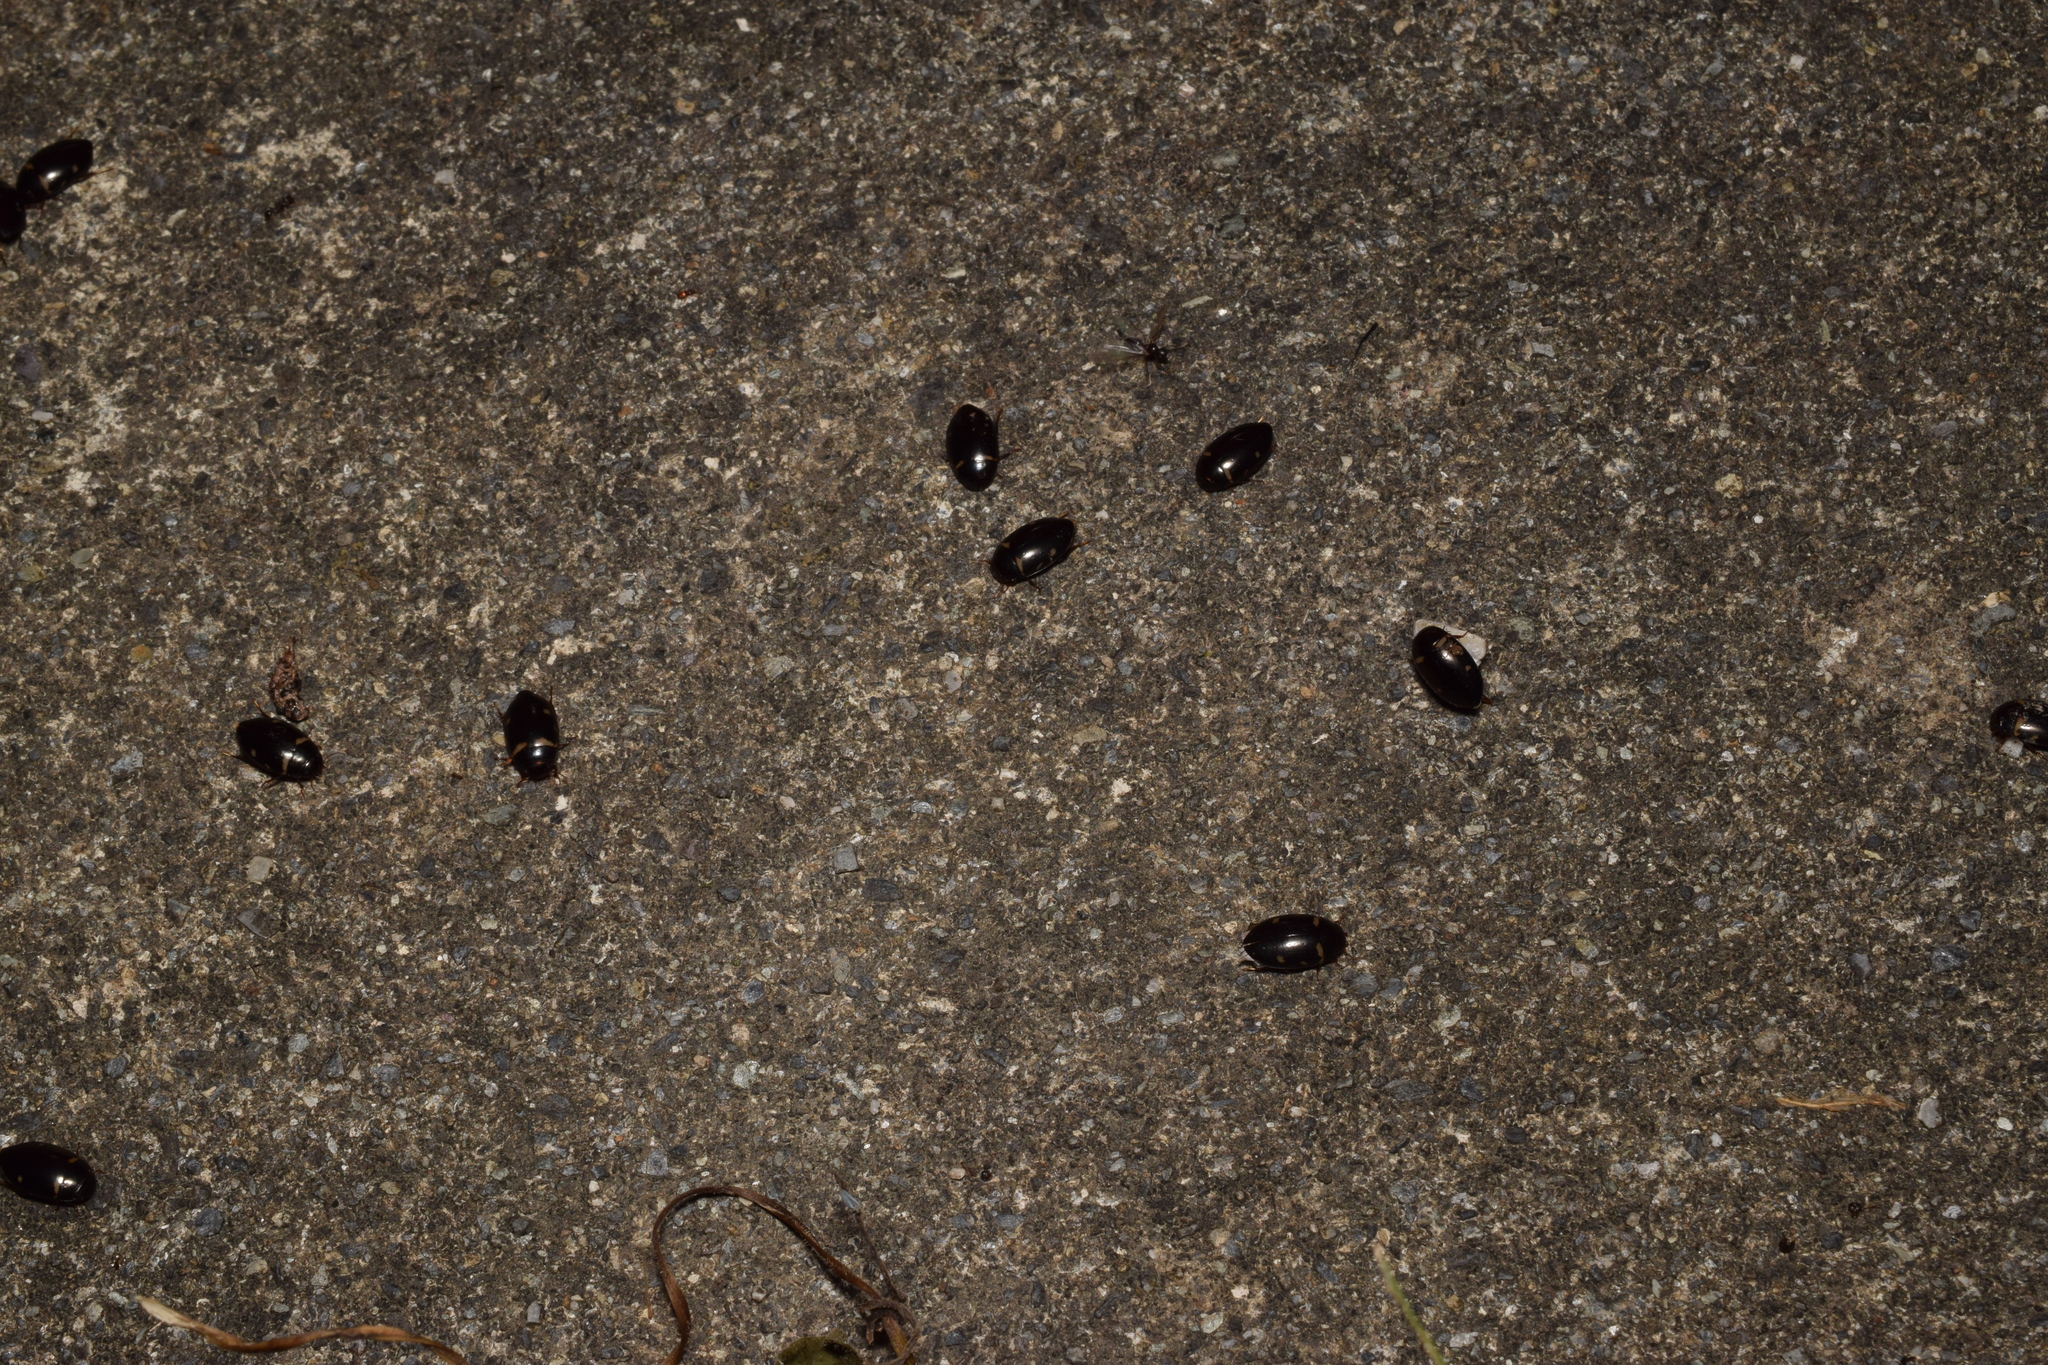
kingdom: Animalia
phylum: Arthropoda
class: Insecta
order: Coleoptera
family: Dytiscidae
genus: Platambus
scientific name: Platambus pictipennis
